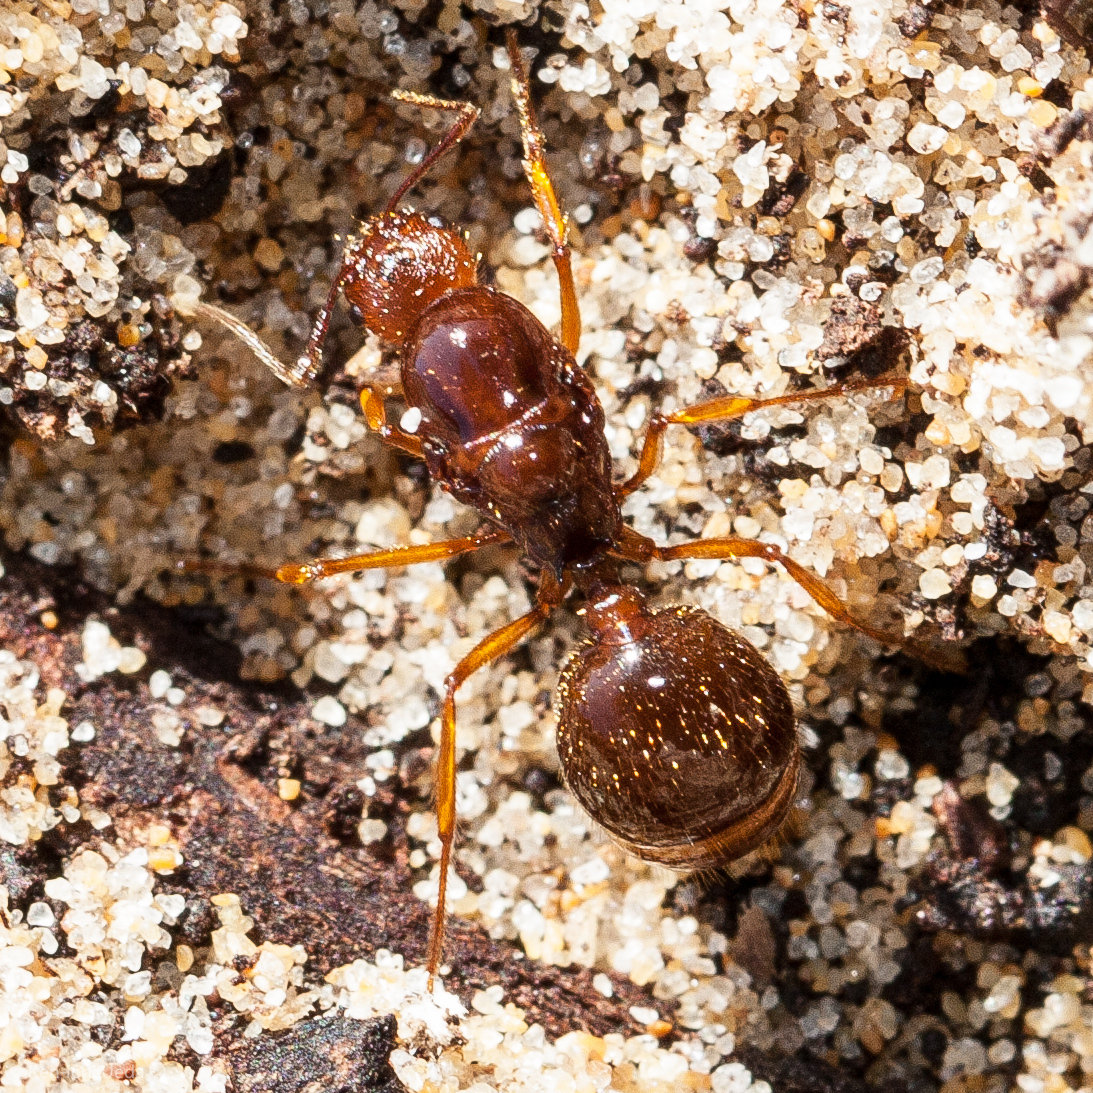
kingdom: Animalia
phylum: Arthropoda
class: Insecta
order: Hymenoptera
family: Formicidae
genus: Aphaenogaster
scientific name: Aphaenogaster longiceps
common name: Funnel ant
